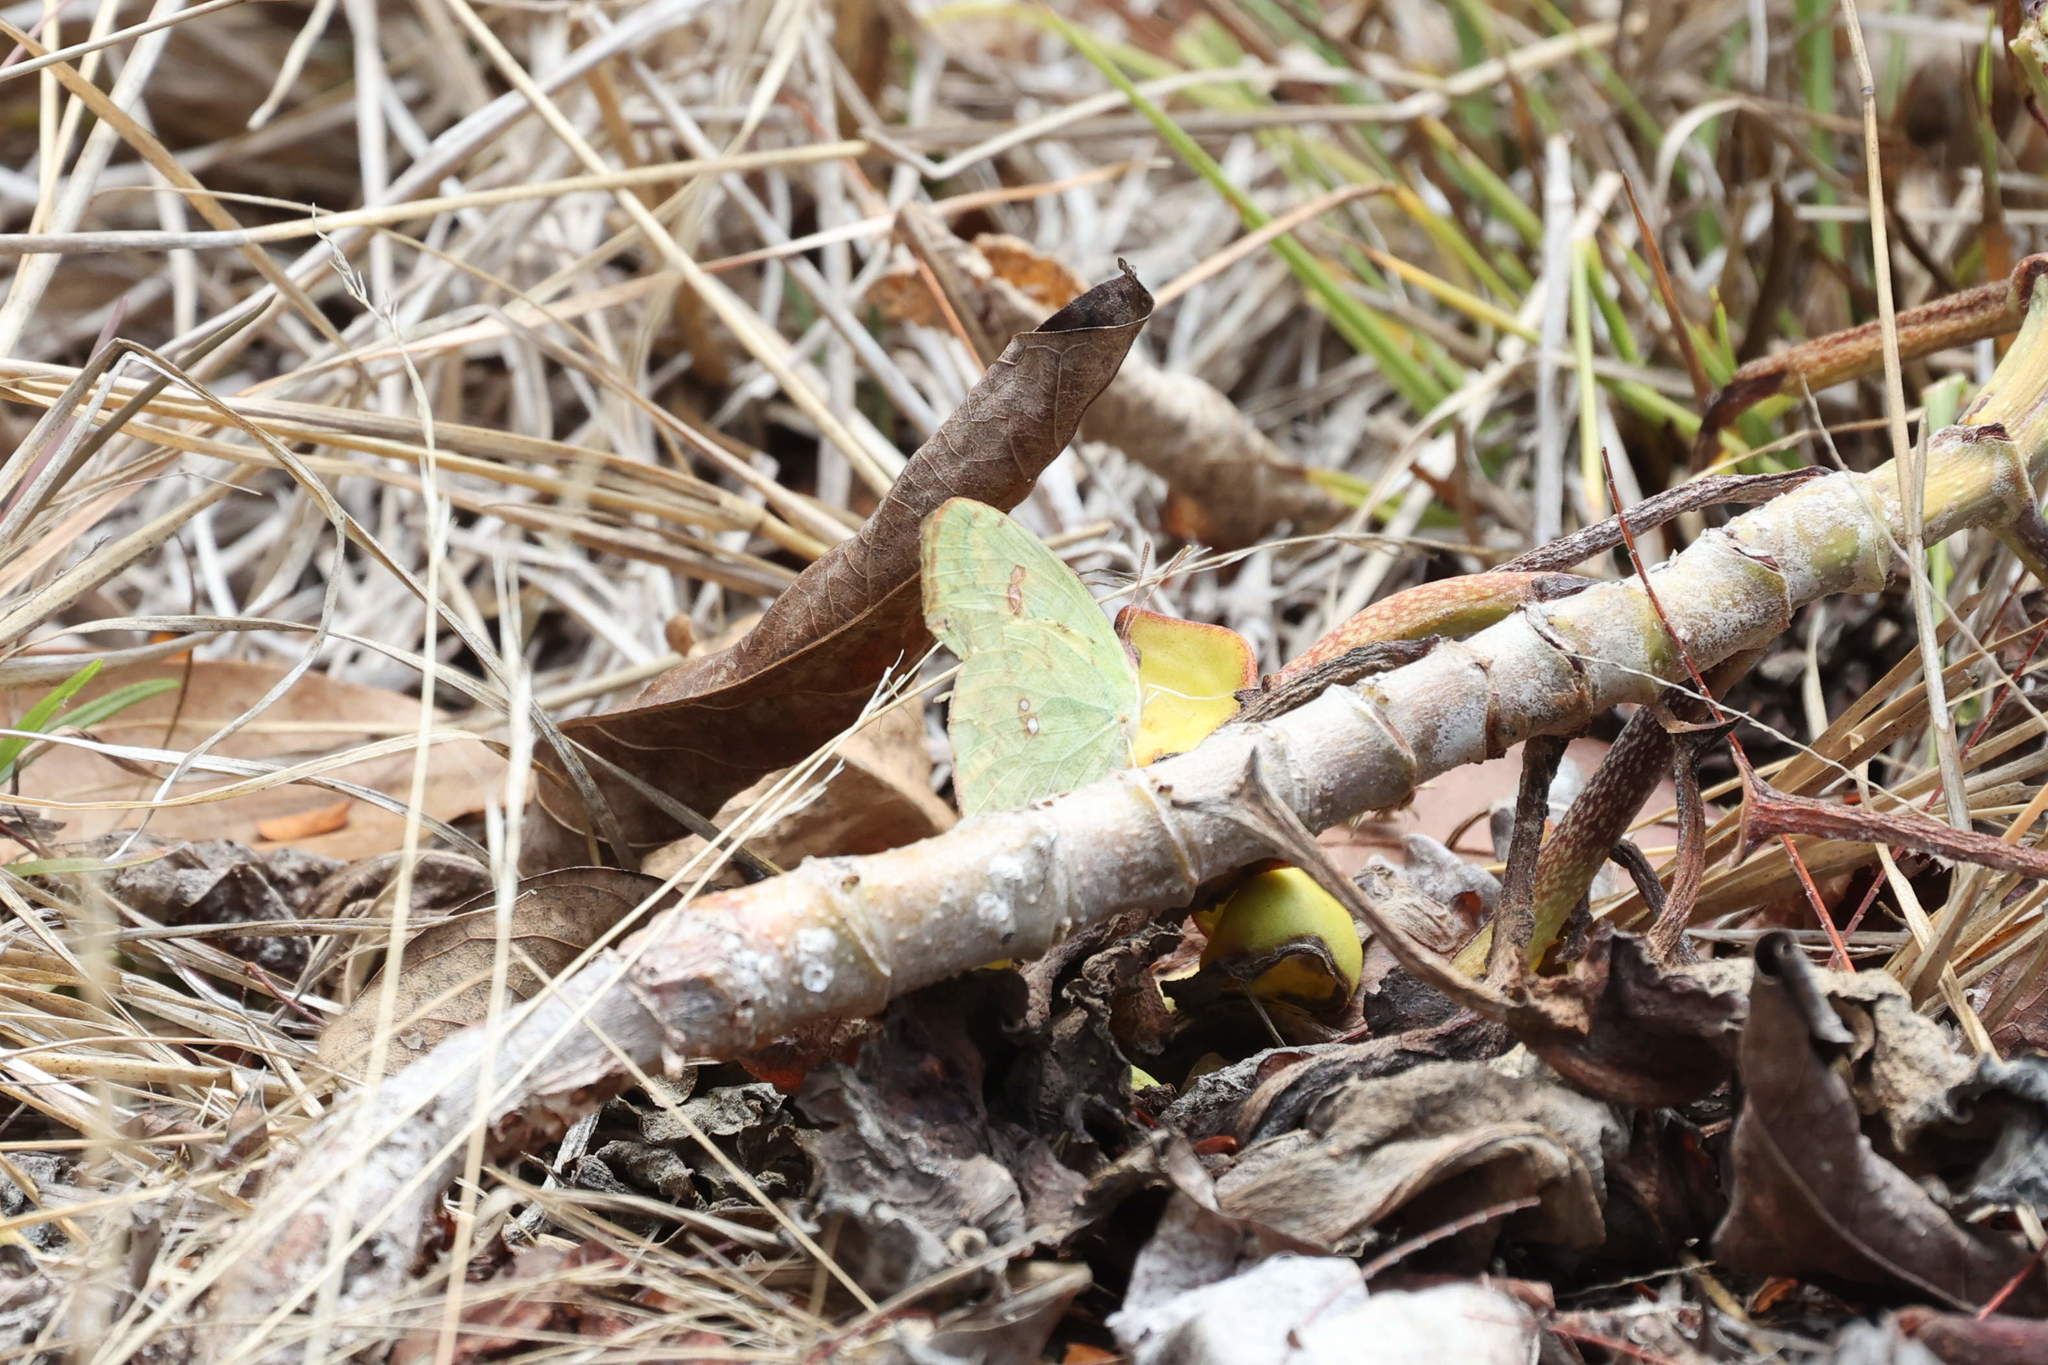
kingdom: Animalia
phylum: Arthropoda
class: Insecta
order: Lepidoptera
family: Pieridae
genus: Phoebis
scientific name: Phoebis sennae
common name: Cloudless sulphur
